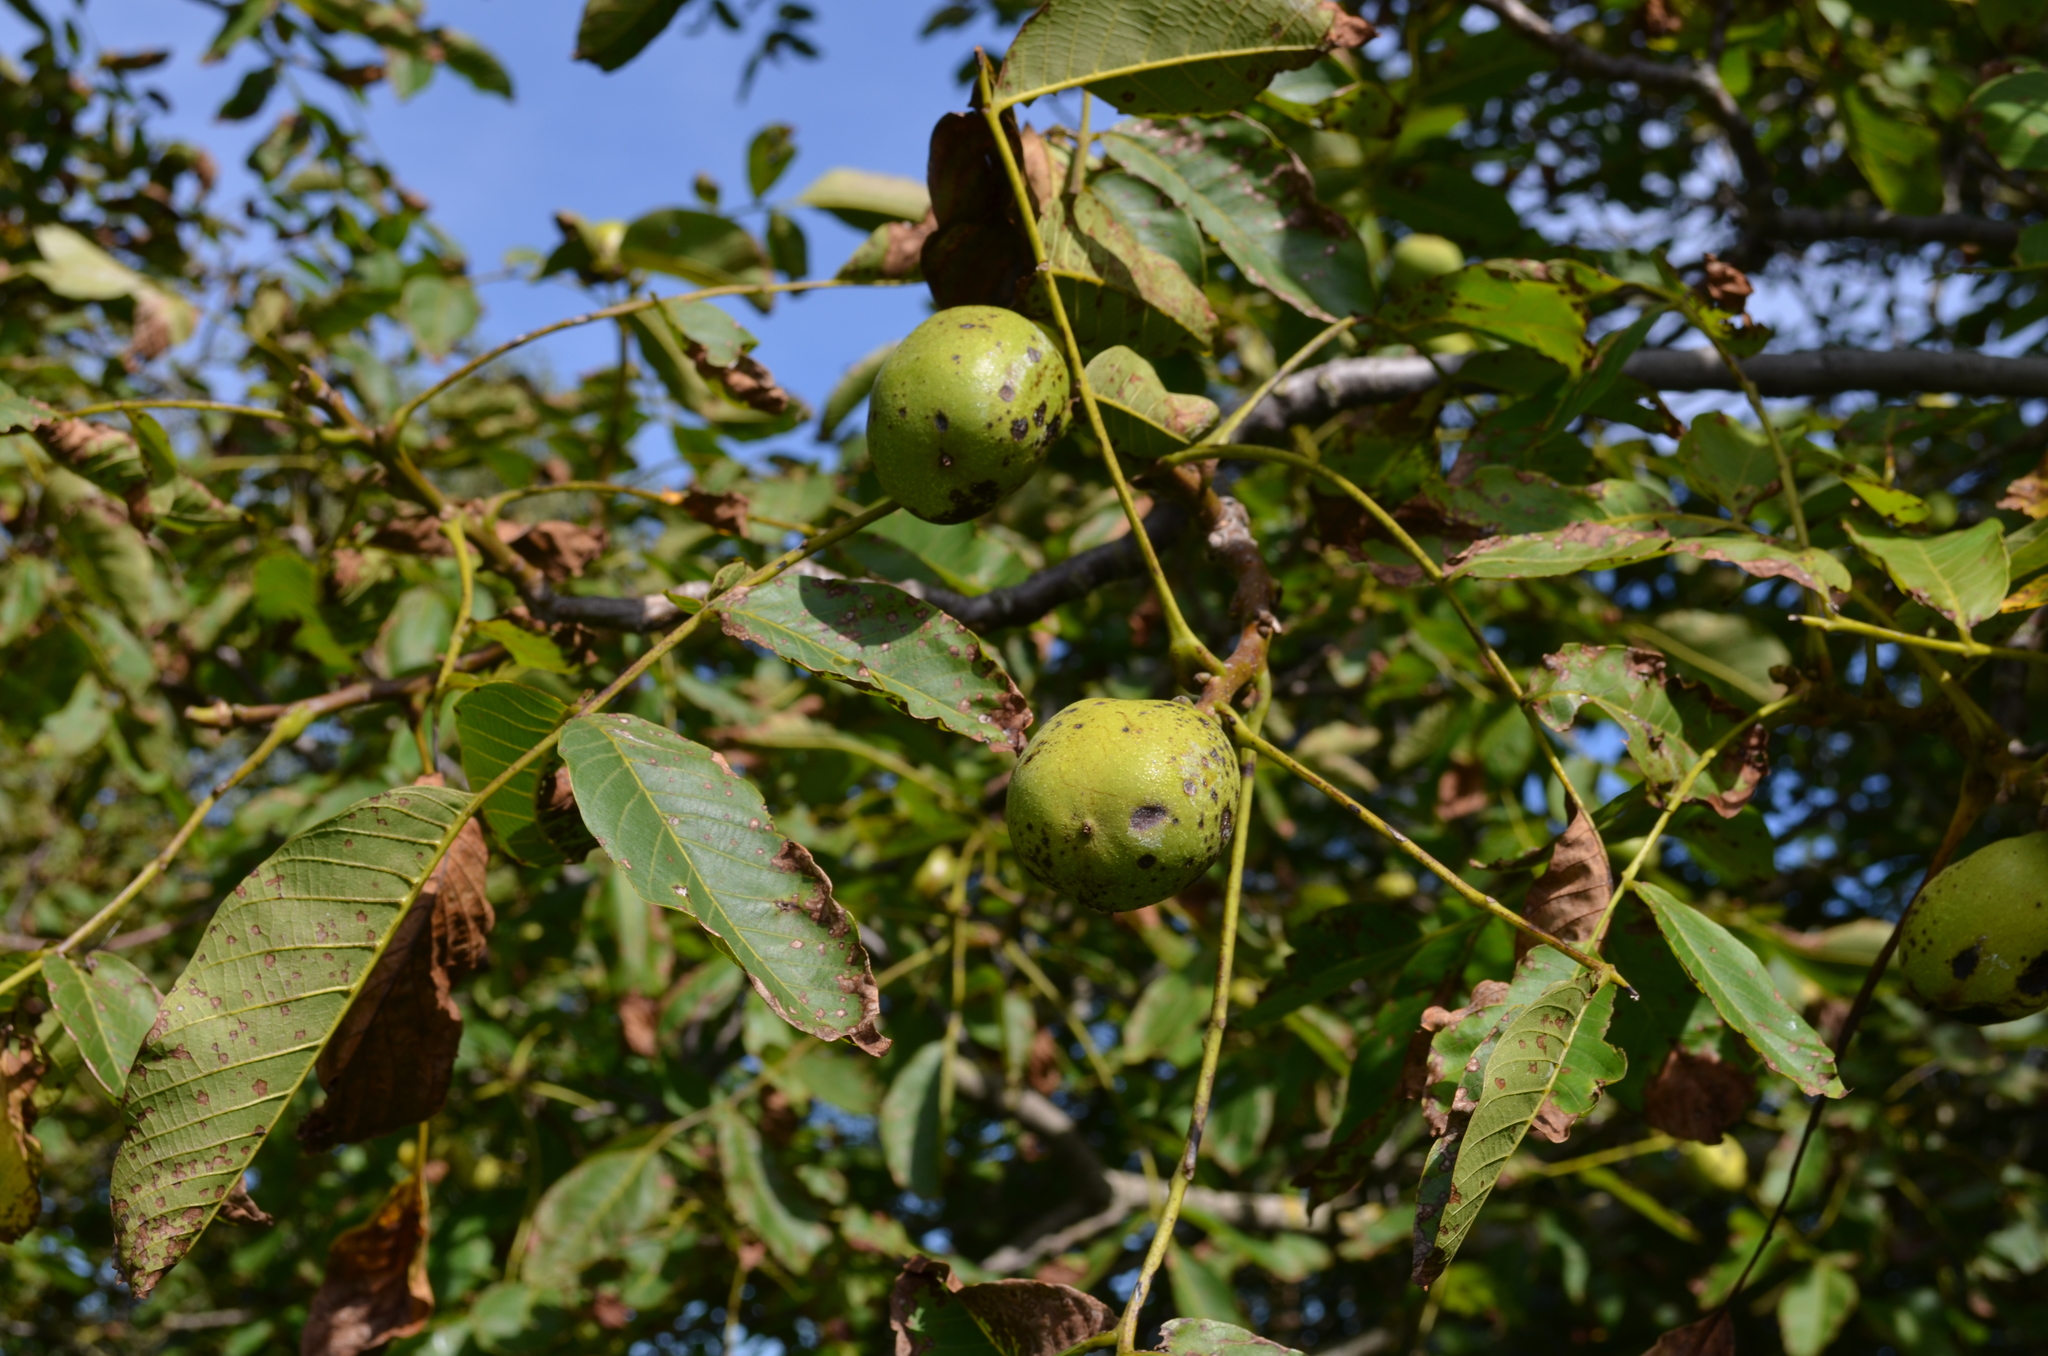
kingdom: Plantae
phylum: Tracheophyta
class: Magnoliopsida
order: Fagales
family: Juglandaceae
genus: Juglans
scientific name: Juglans regia
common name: Walnut
